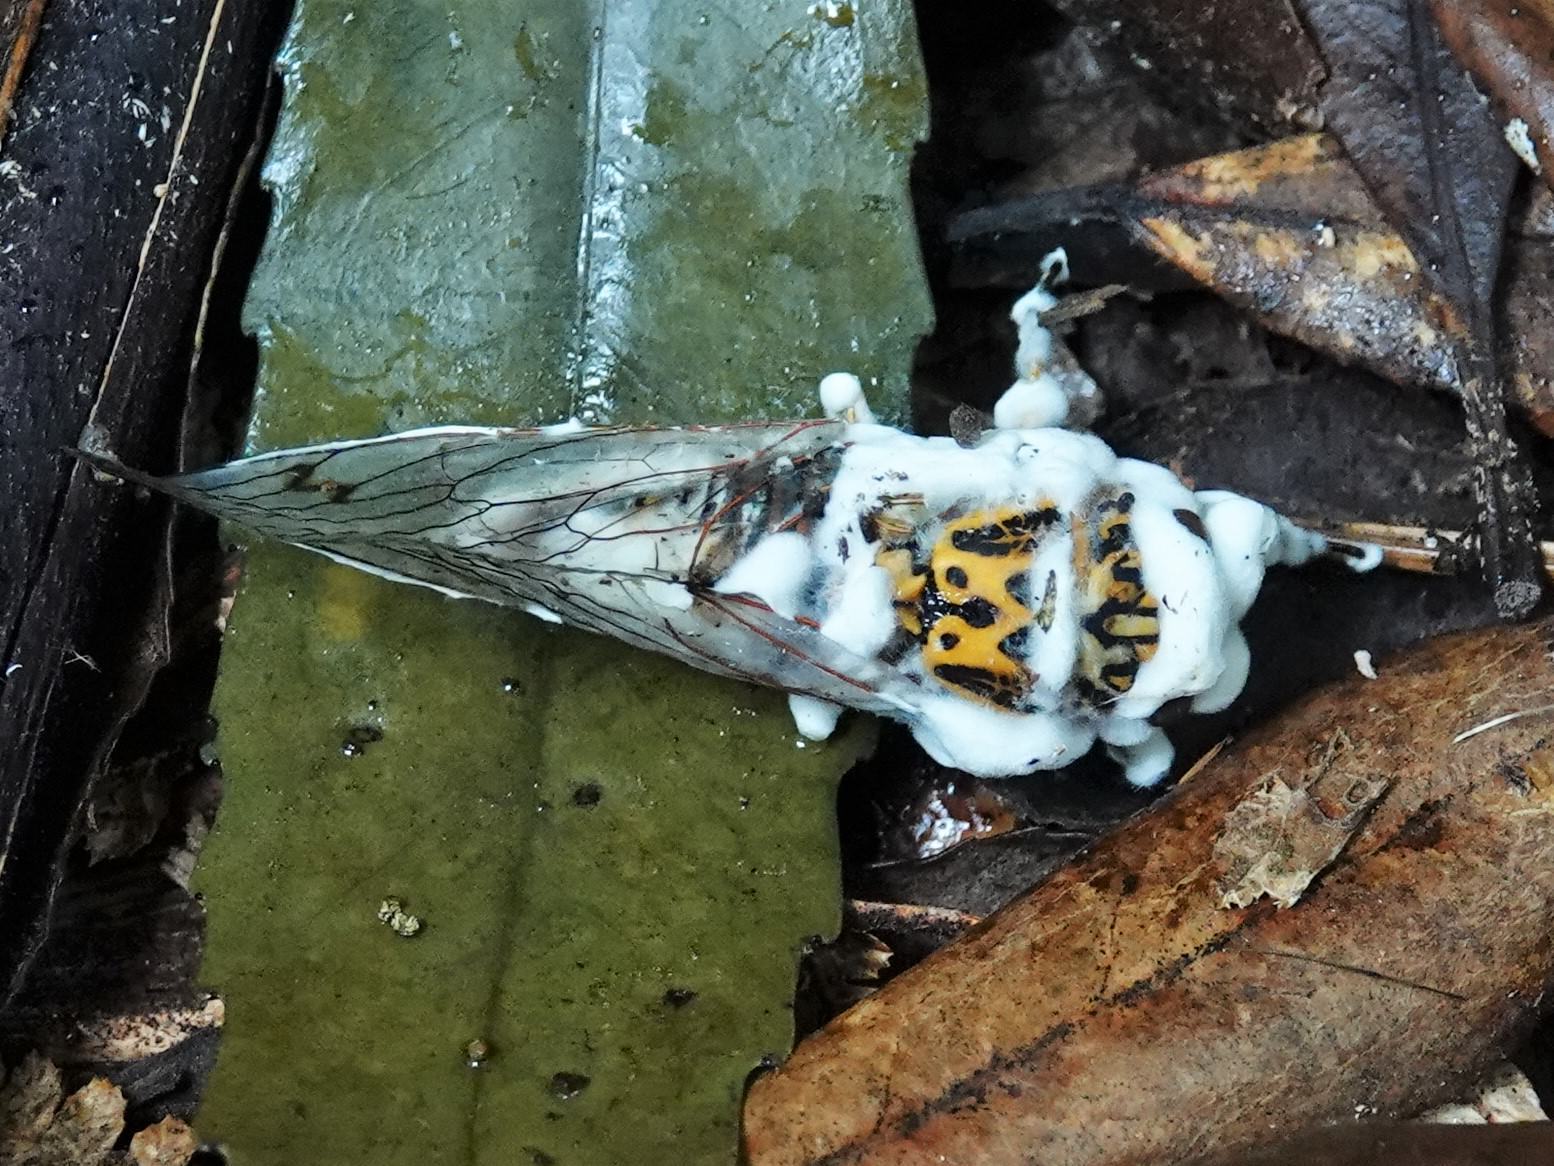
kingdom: Fungi
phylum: Ascomycota
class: Sordariomycetes
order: Hypocreales
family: Cordycipitaceae
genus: Beauveria
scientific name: Beauveria bassiana
